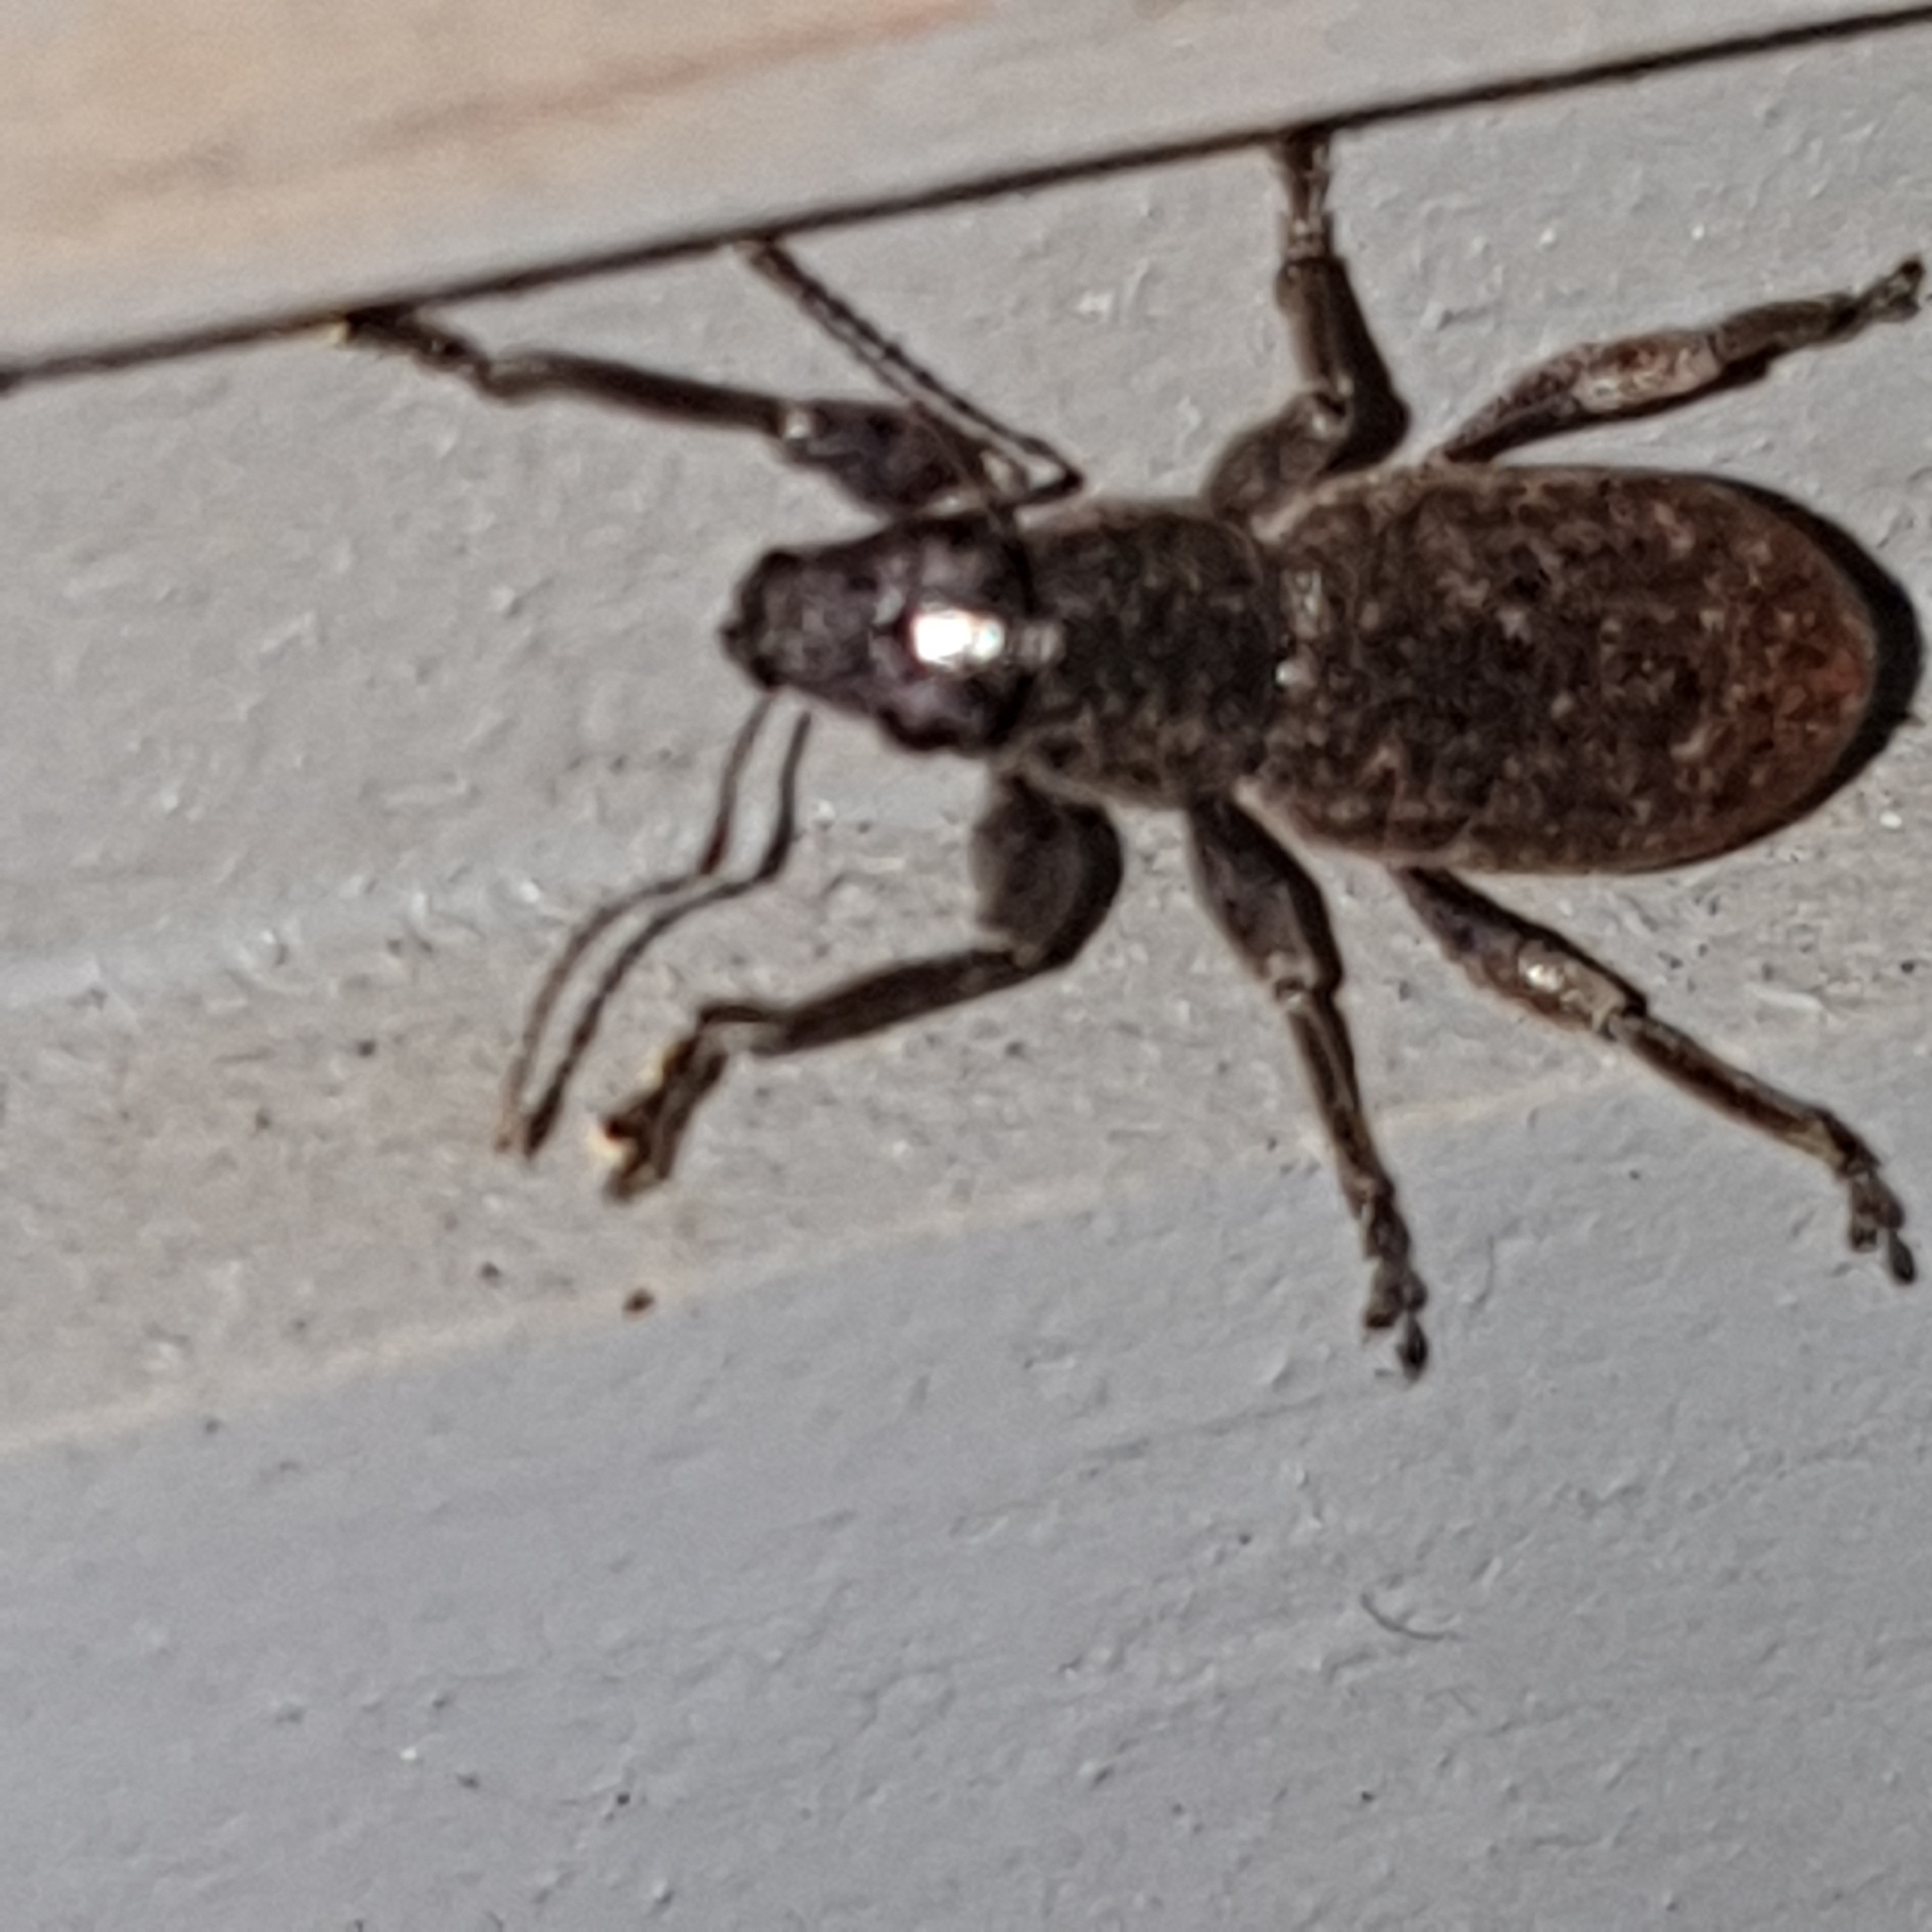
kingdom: Animalia
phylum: Arthropoda
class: Insecta
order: Coleoptera
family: Curculionidae
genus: Brachyderes
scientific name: Brachyderes incanus
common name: Weevil
